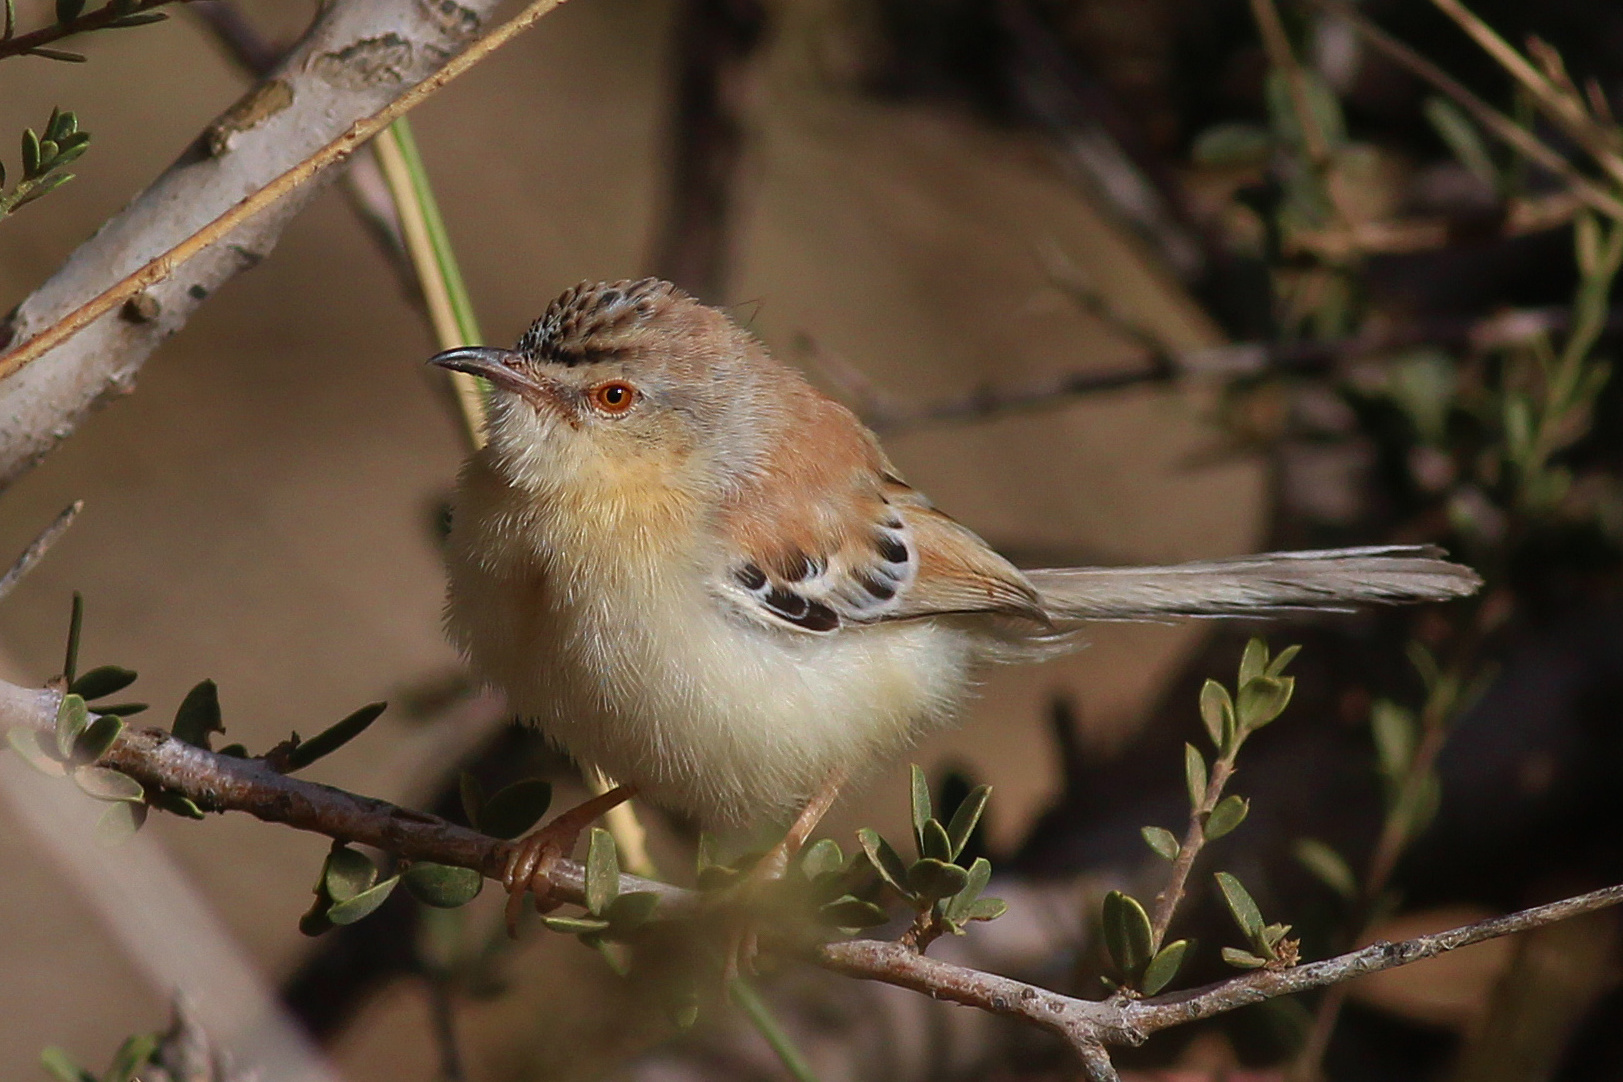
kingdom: Animalia
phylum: Chordata
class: Aves
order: Passeriformes
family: Cisticolidae
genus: Spiloptila
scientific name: Spiloptila clamans
